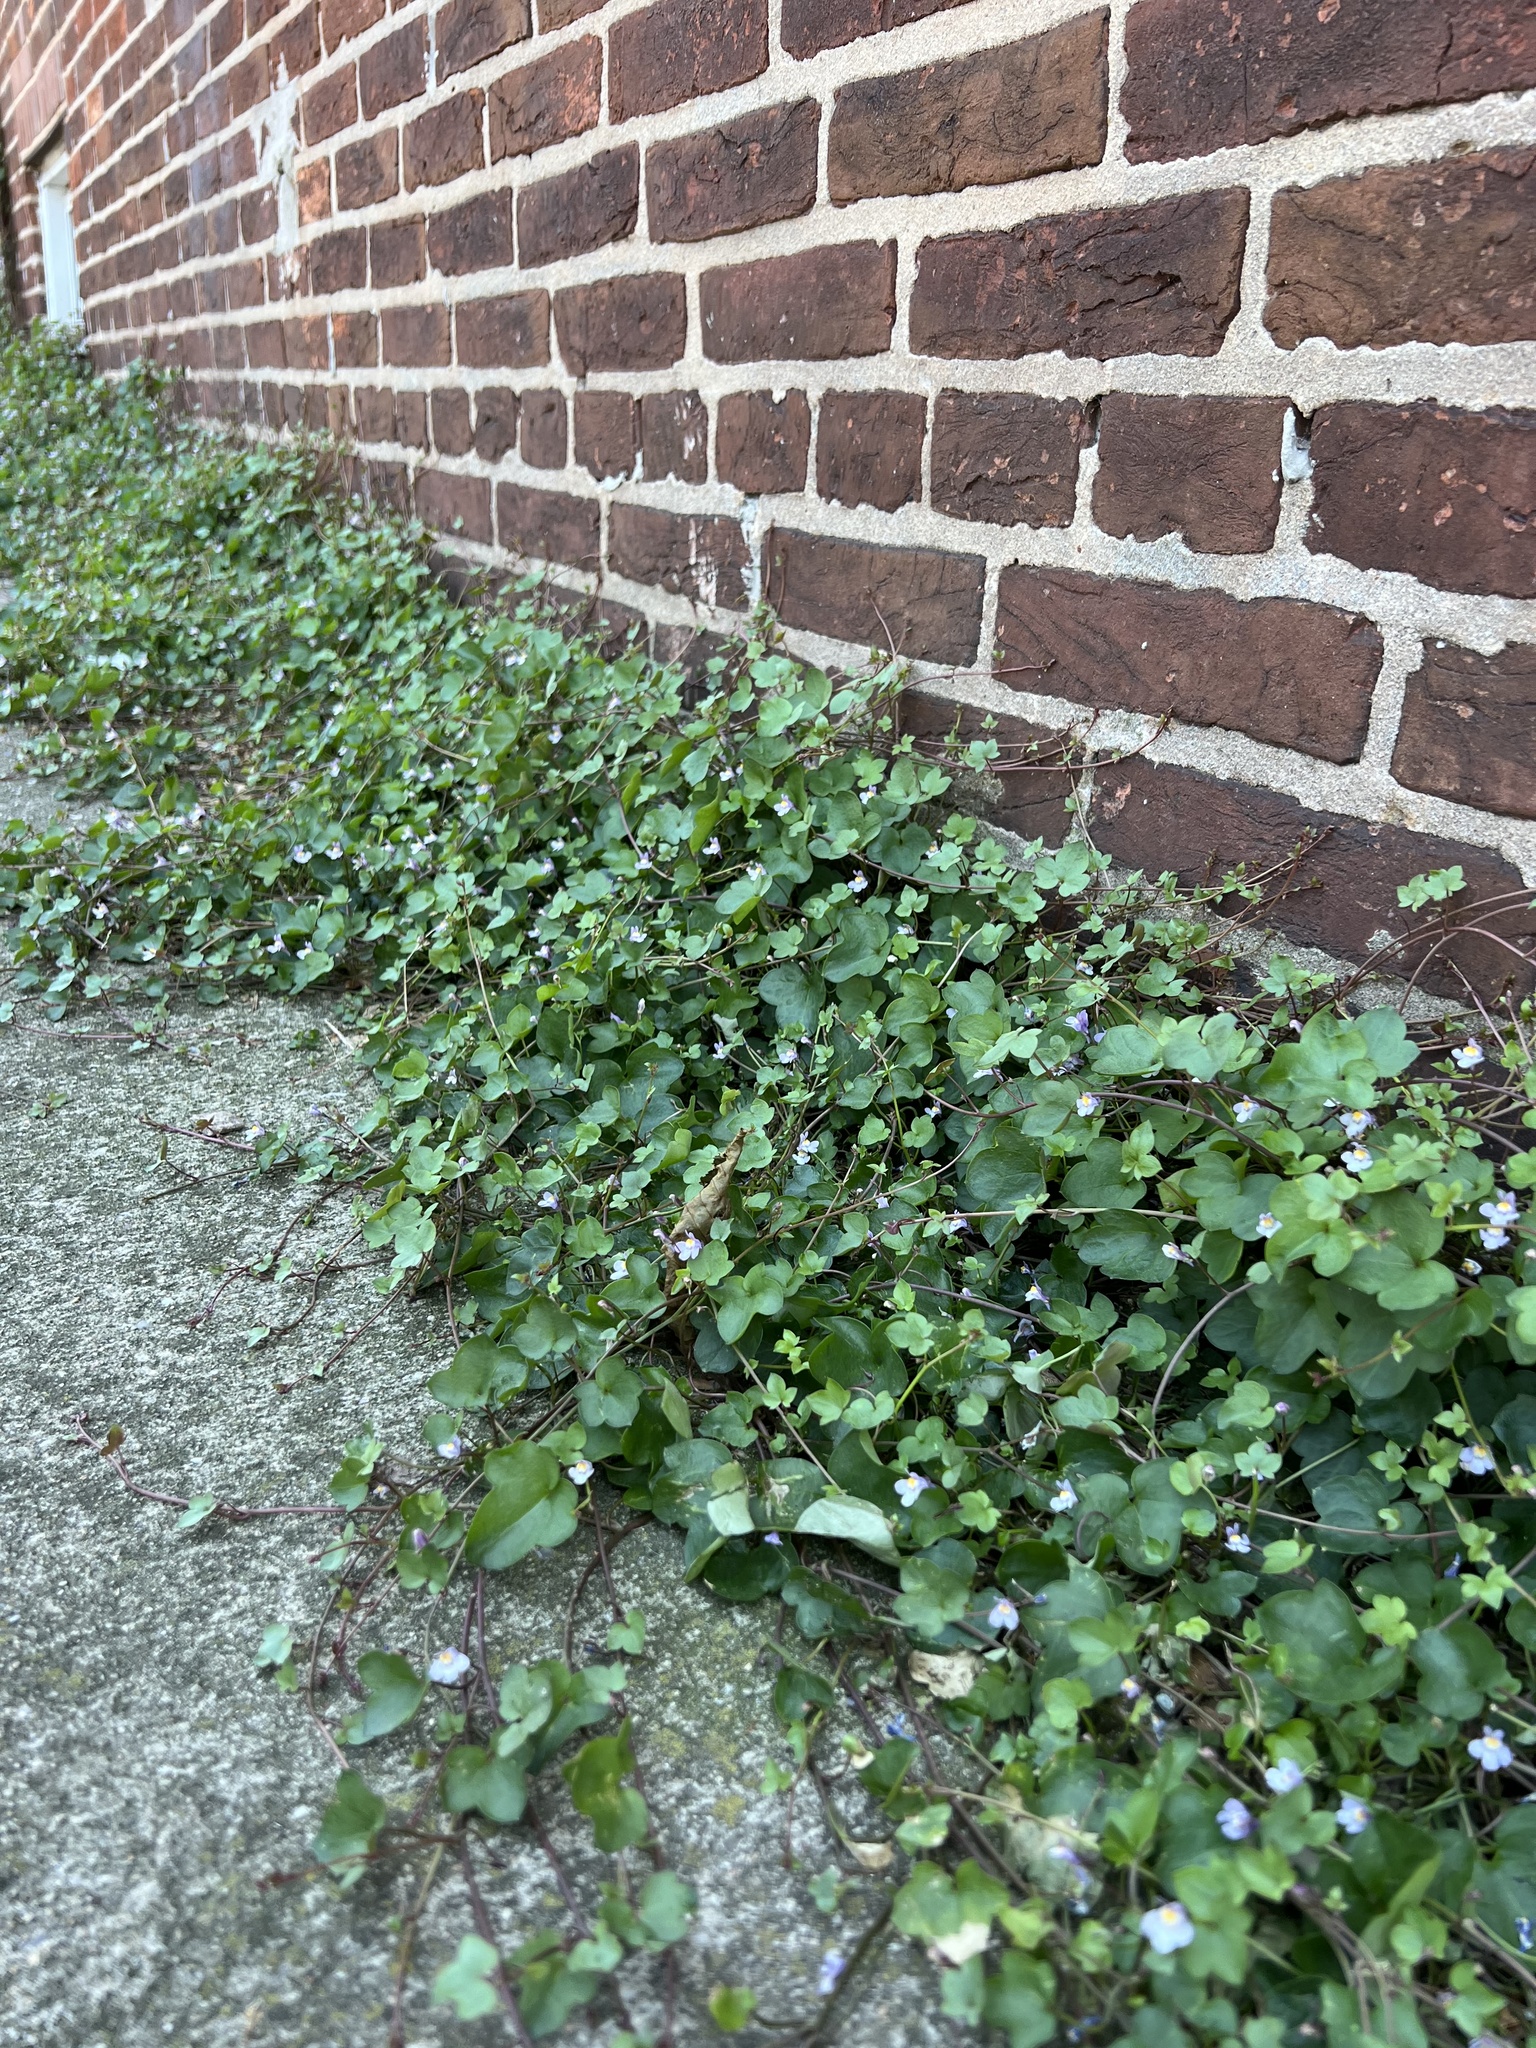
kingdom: Plantae
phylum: Tracheophyta
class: Magnoliopsida
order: Lamiales
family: Plantaginaceae
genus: Cymbalaria
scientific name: Cymbalaria muralis
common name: Ivy-leaved toadflax
